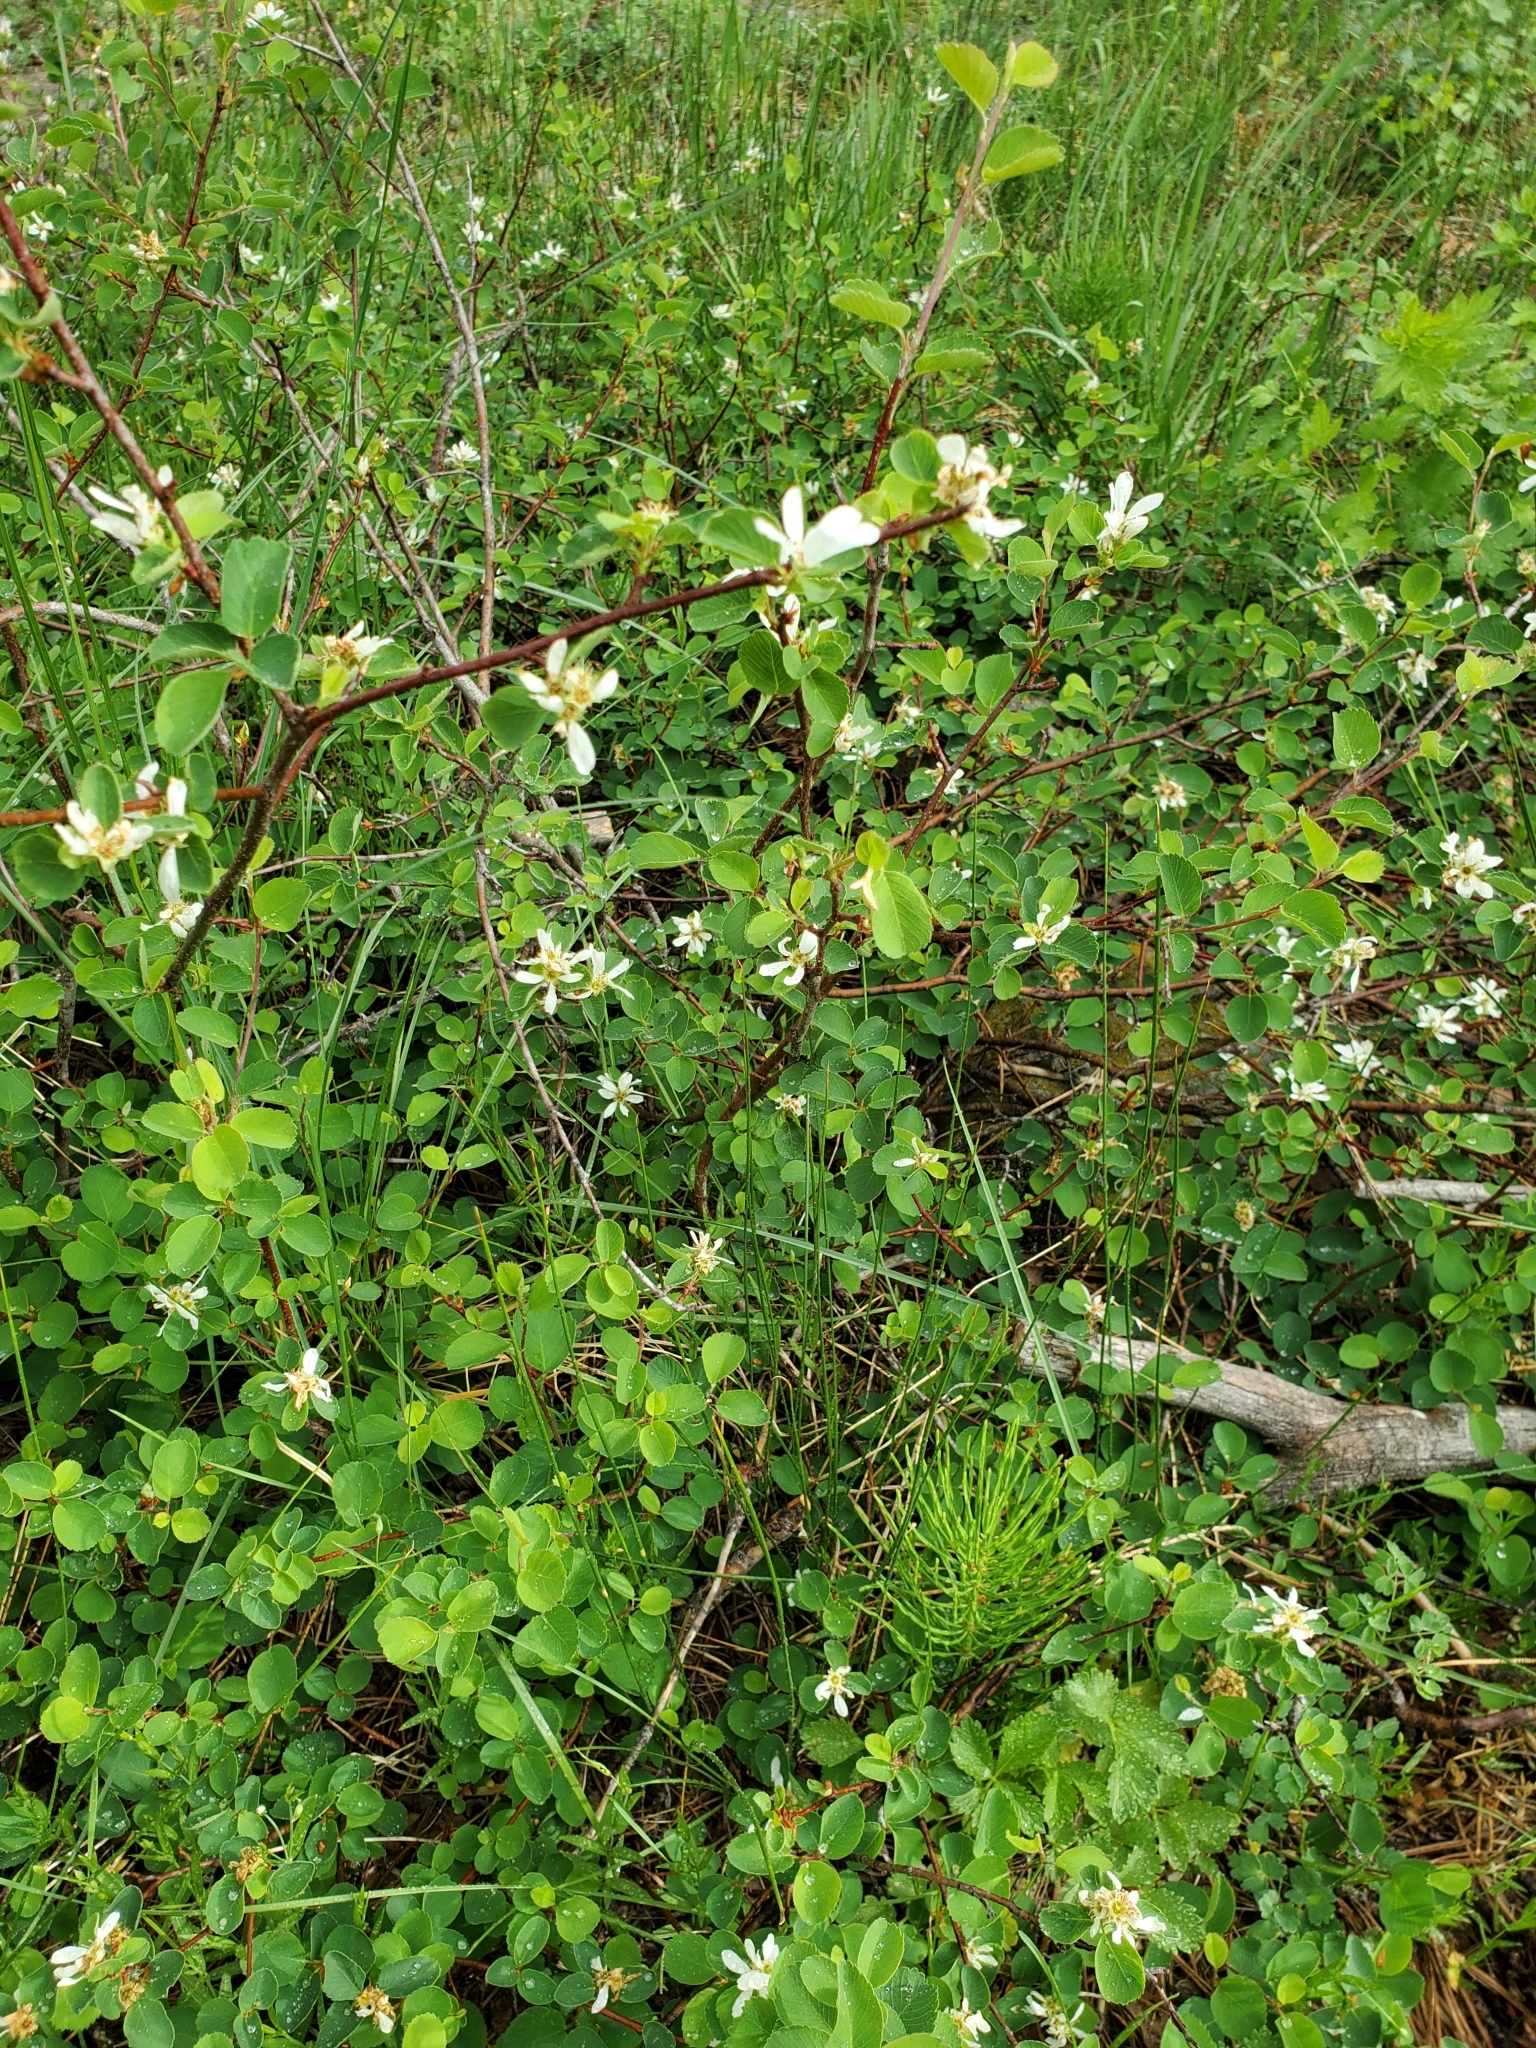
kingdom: Plantae
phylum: Tracheophyta
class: Magnoliopsida
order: Rosales
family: Rosaceae
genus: Amelanchier
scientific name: Amelanchier alnifolia
